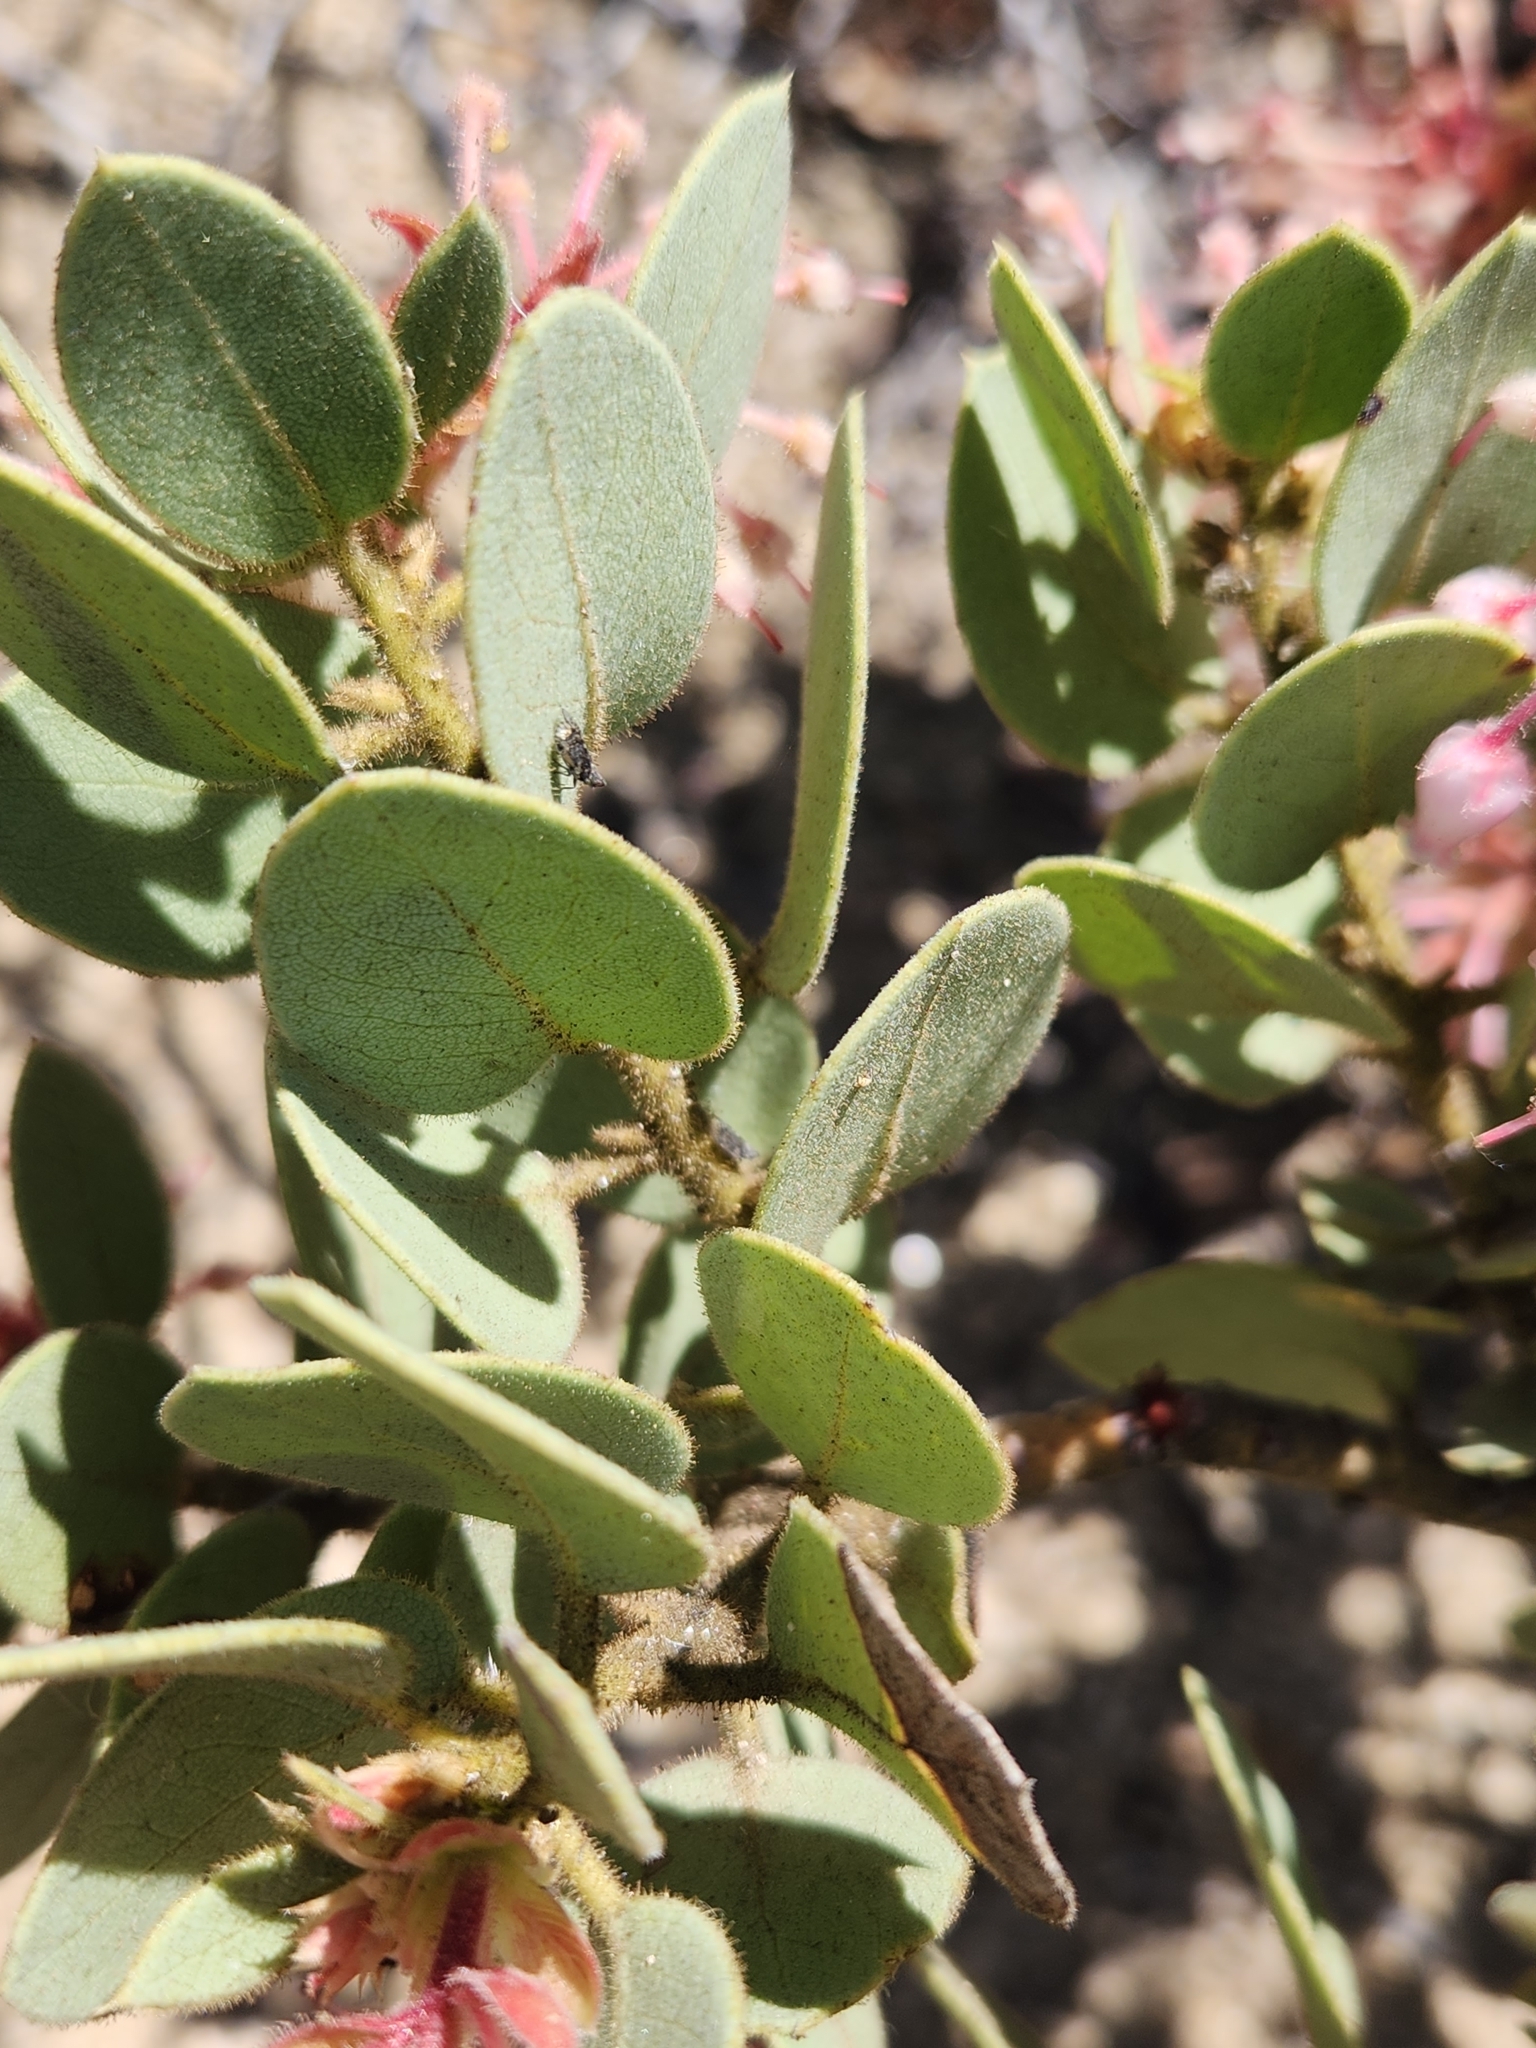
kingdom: Plantae
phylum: Tracheophyta
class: Magnoliopsida
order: Ericales
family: Ericaceae
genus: Arctostaphylos
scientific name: Arctostaphylos pringlei
